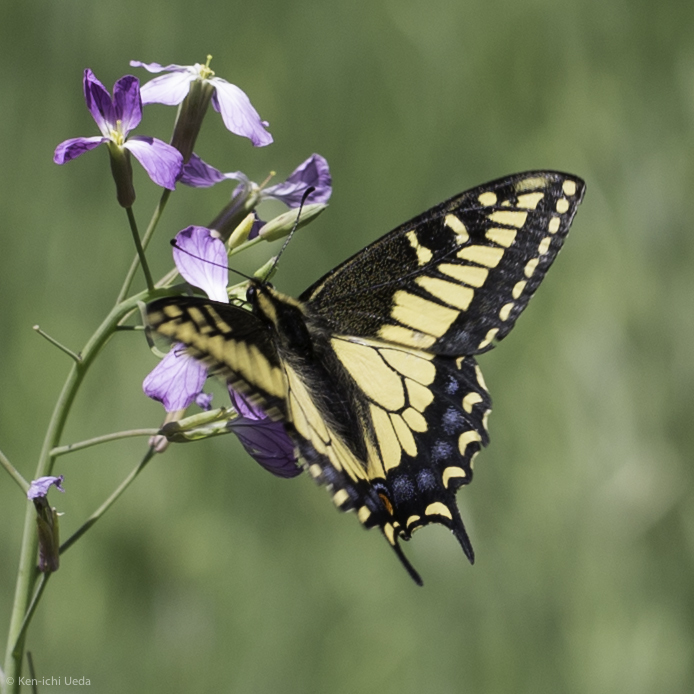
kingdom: Animalia
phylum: Arthropoda
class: Insecta
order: Lepidoptera
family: Papilionidae
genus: Papilio
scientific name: Papilio zelicaon
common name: Anise swallowtail
